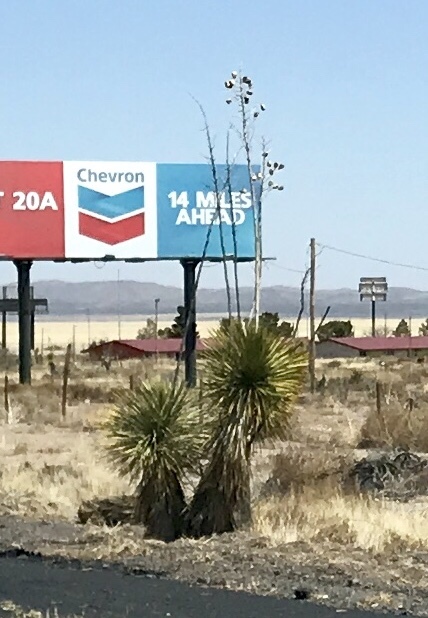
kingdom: Plantae
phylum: Tracheophyta
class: Liliopsida
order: Asparagales
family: Asparagaceae
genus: Yucca
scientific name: Yucca elata
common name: Palmella
